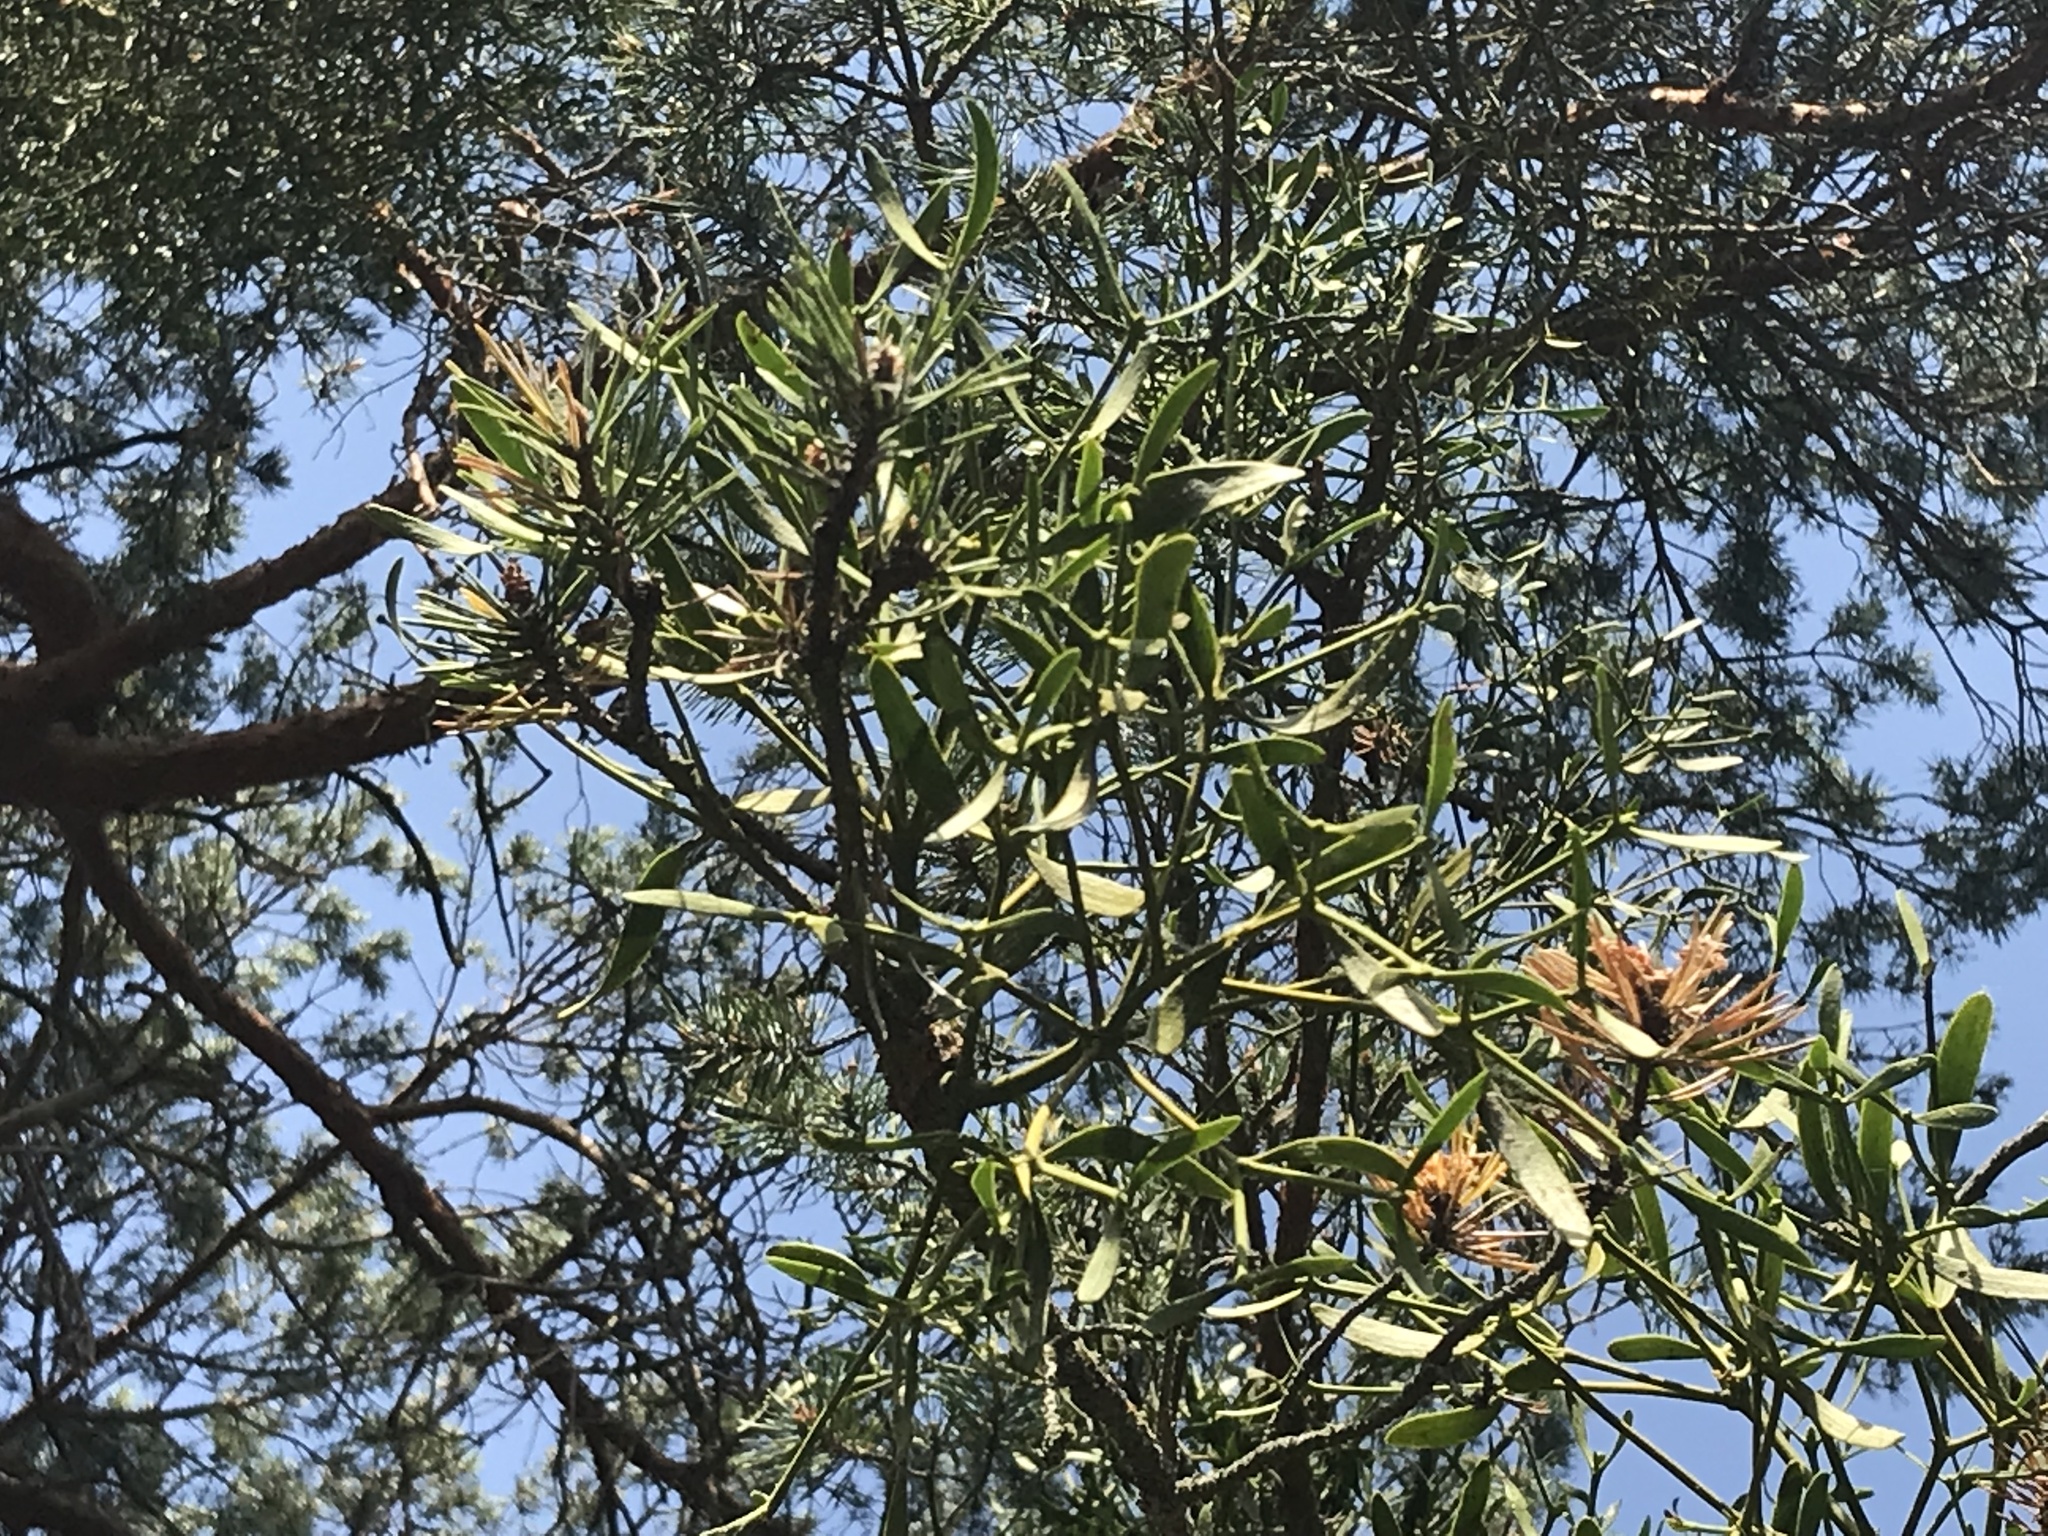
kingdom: Plantae
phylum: Tracheophyta
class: Magnoliopsida
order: Santalales
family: Viscaceae
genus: Viscum
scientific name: Viscum laxum
